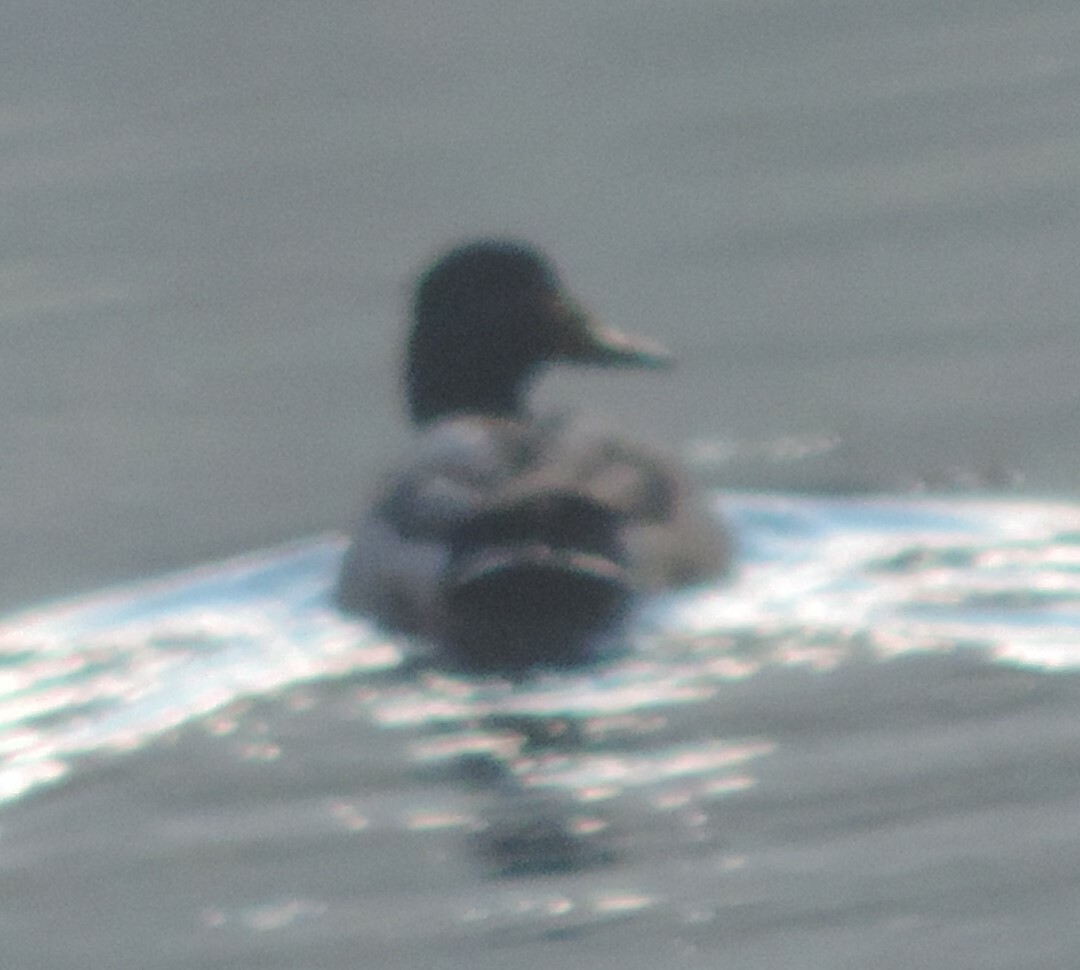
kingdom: Animalia
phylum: Chordata
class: Aves
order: Anseriformes
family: Anatidae
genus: Anas
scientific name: Anas platyrhynchos
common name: Mallard
